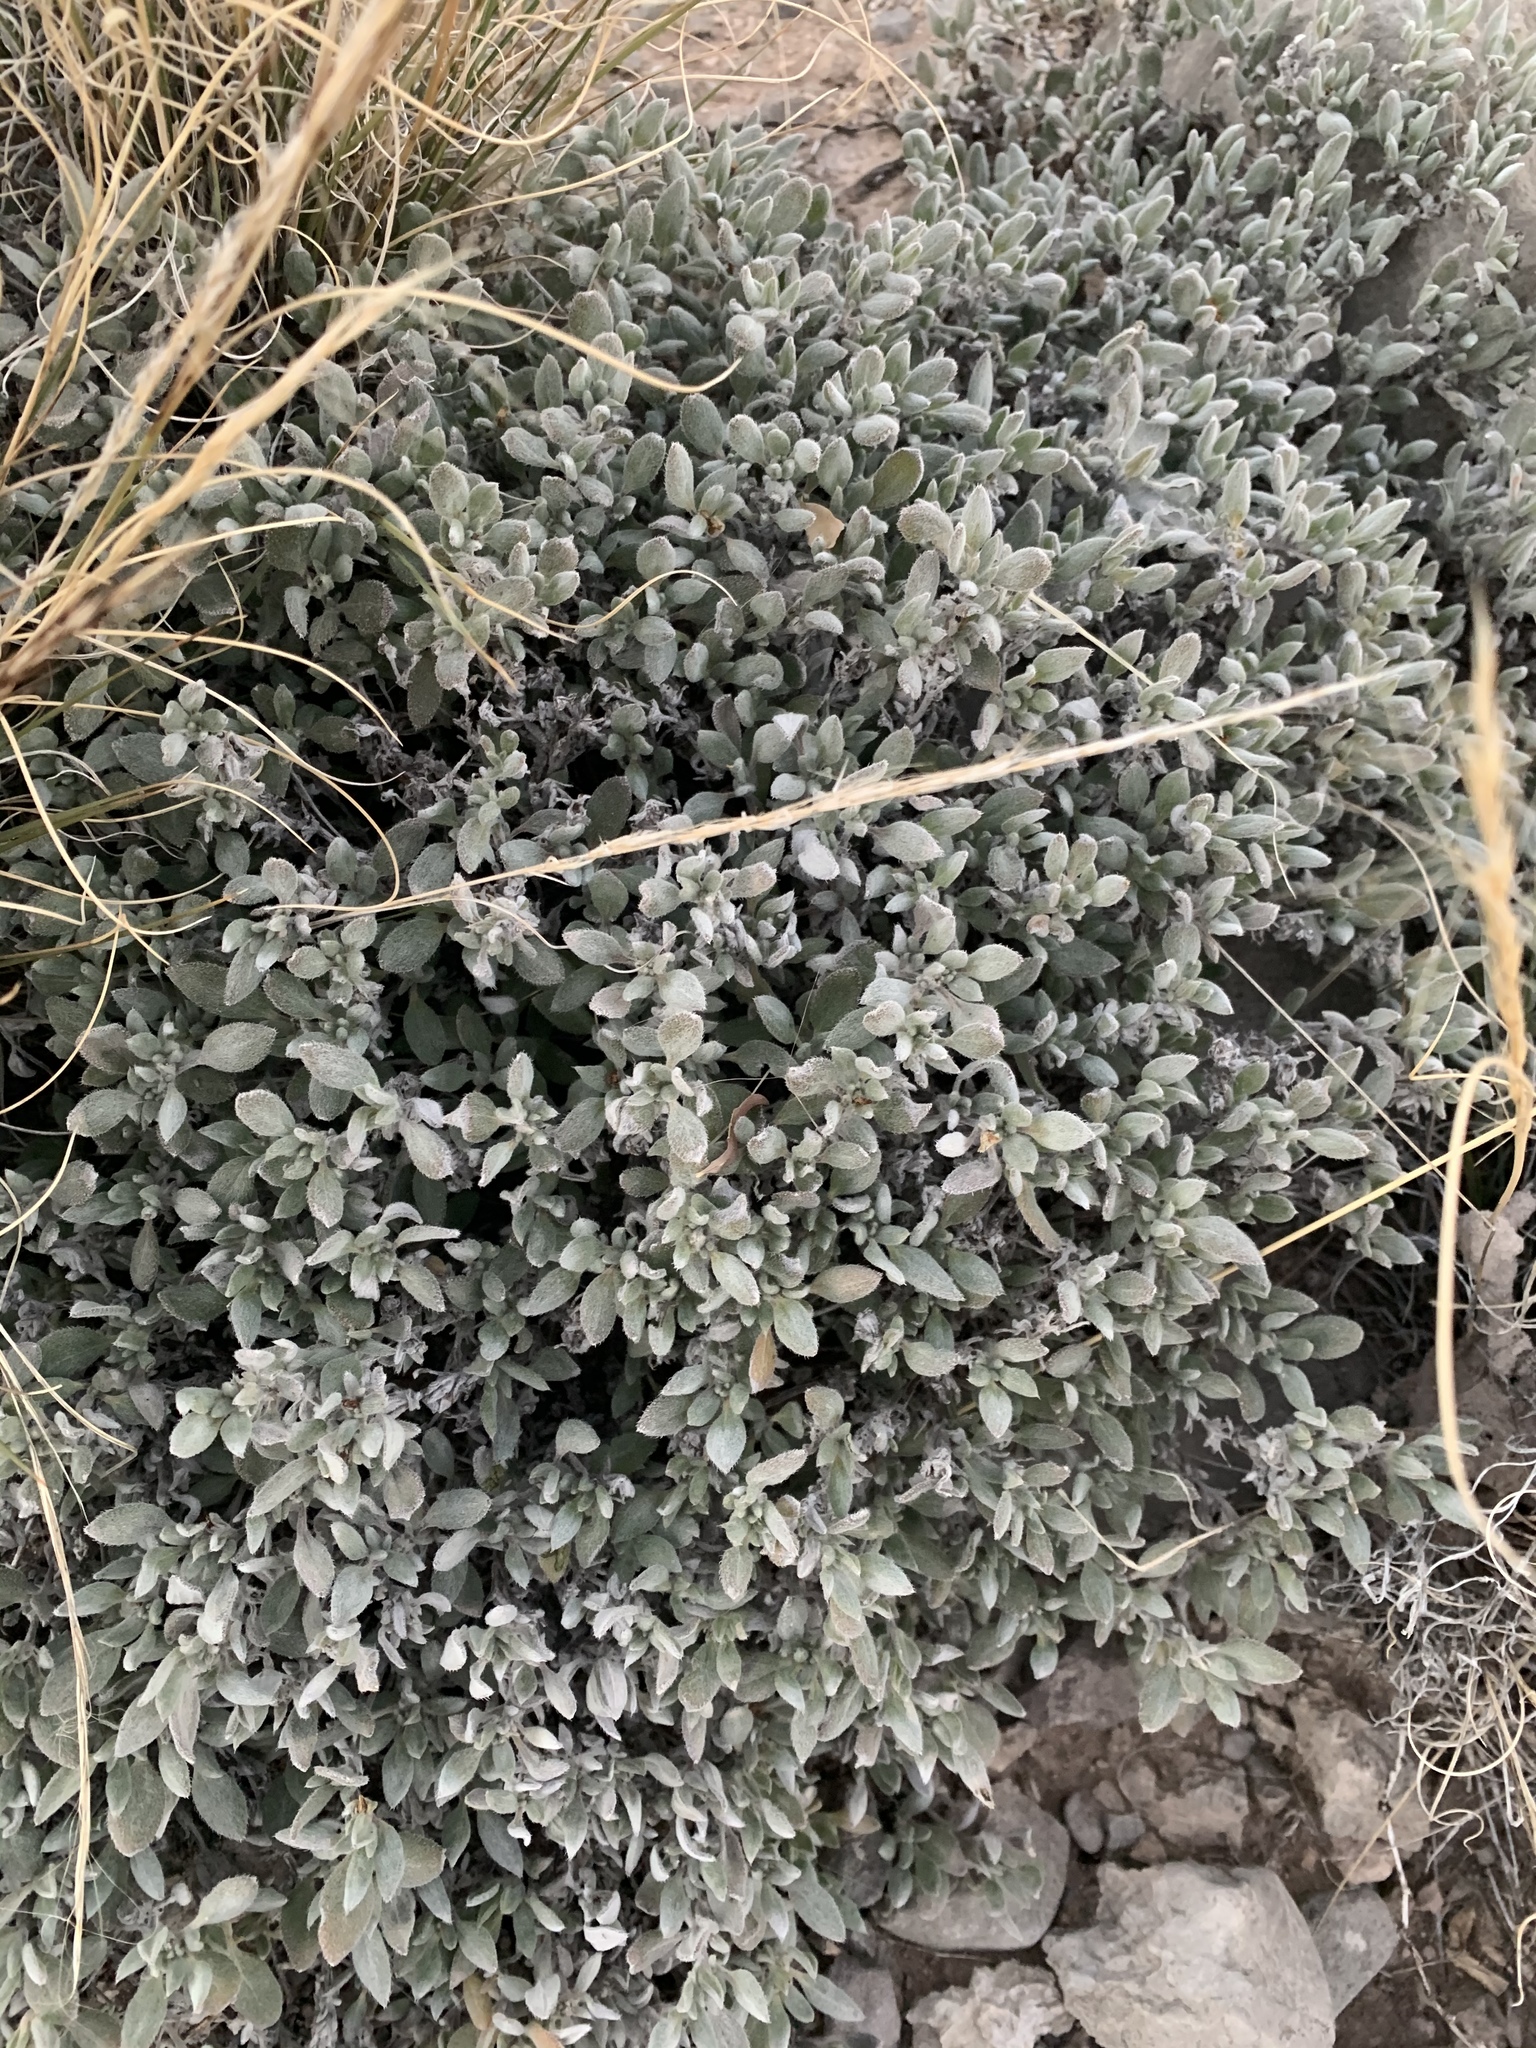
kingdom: Plantae
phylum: Tracheophyta
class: Magnoliopsida
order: Boraginales
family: Ehretiaceae
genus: Tiquilia
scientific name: Tiquilia canescens
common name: Hairy tiquilia
